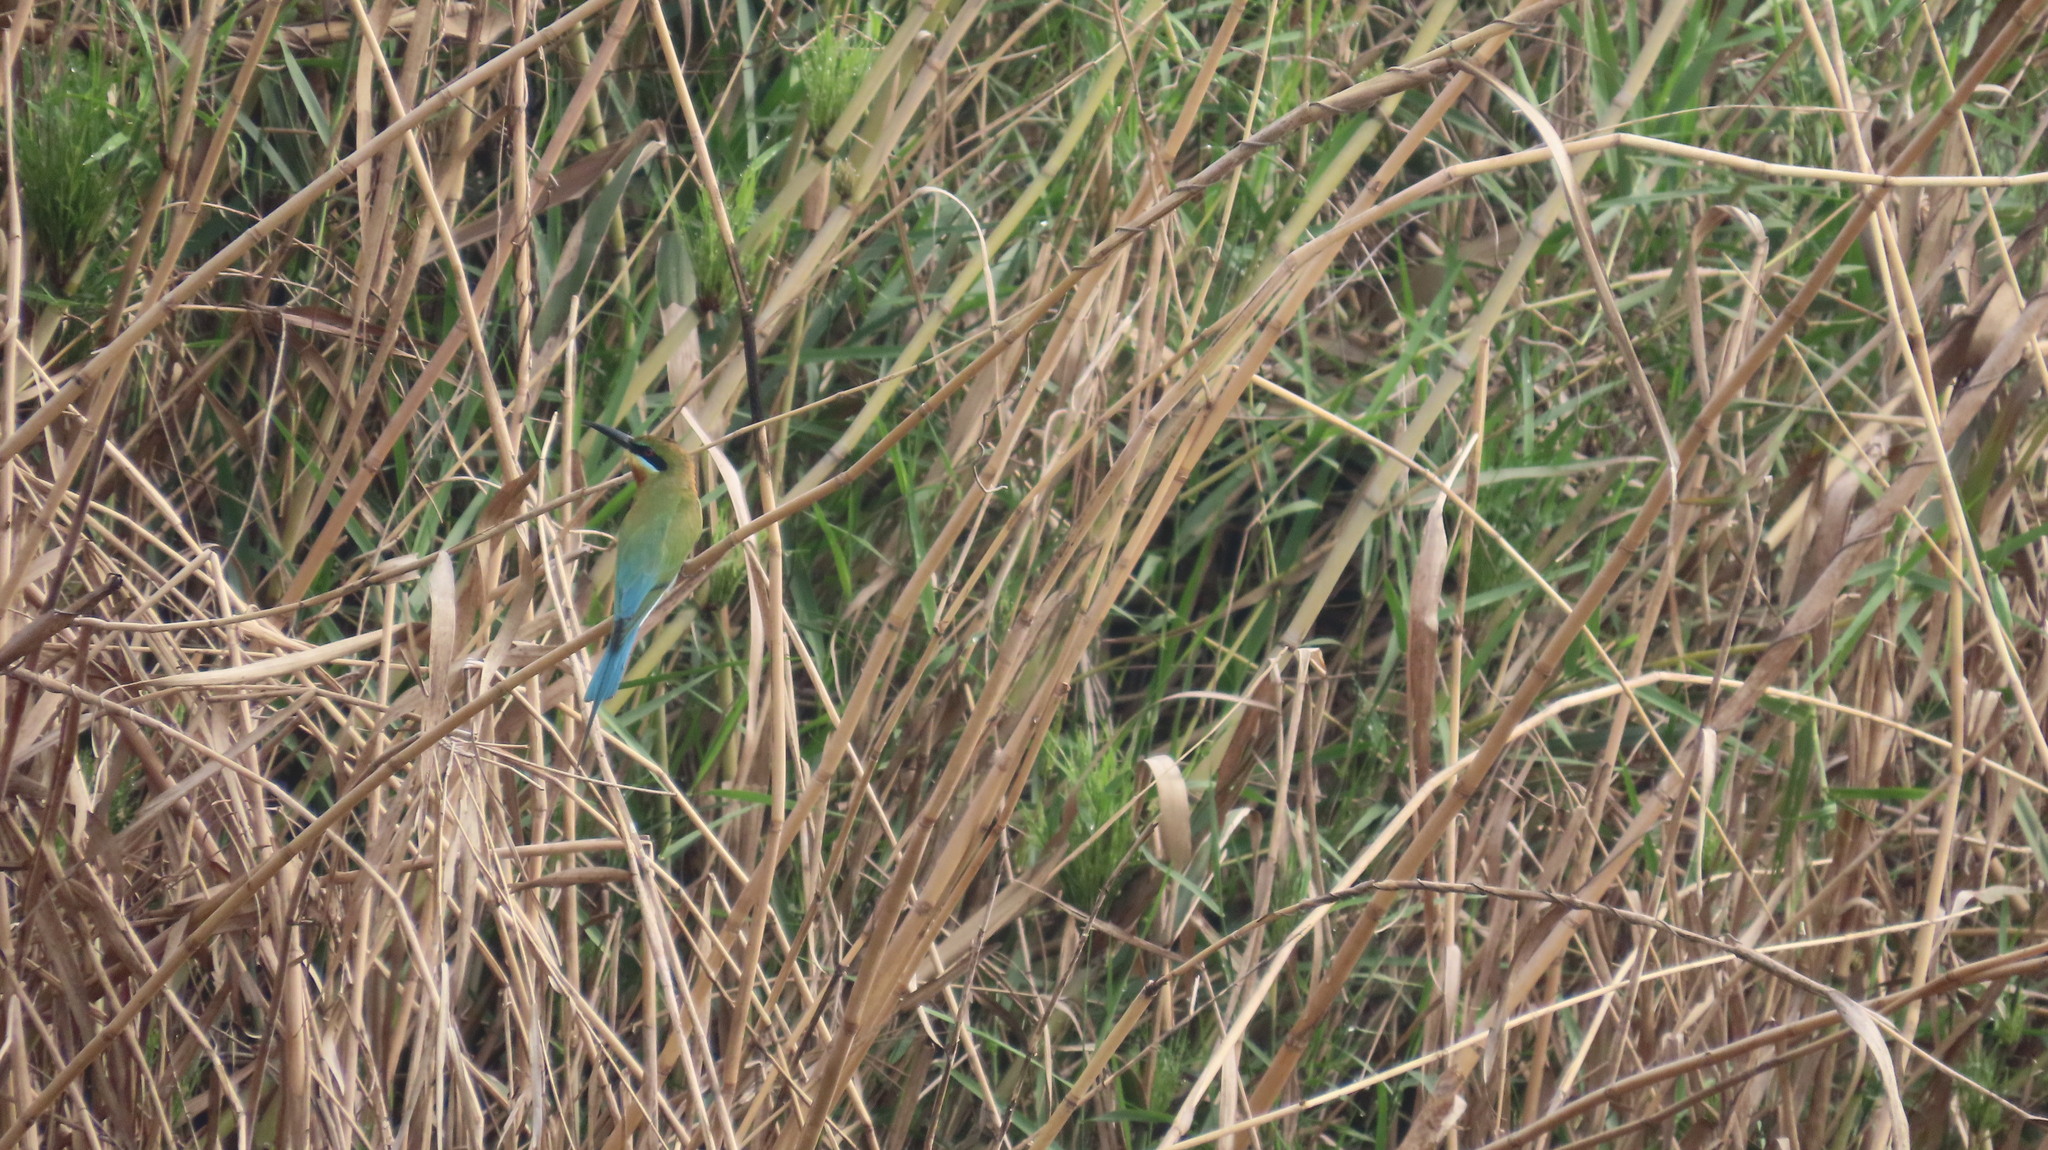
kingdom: Animalia
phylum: Chordata
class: Aves
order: Coraciiformes
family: Meropidae
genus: Merops
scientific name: Merops philippinus
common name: Blue-tailed bee-eater
